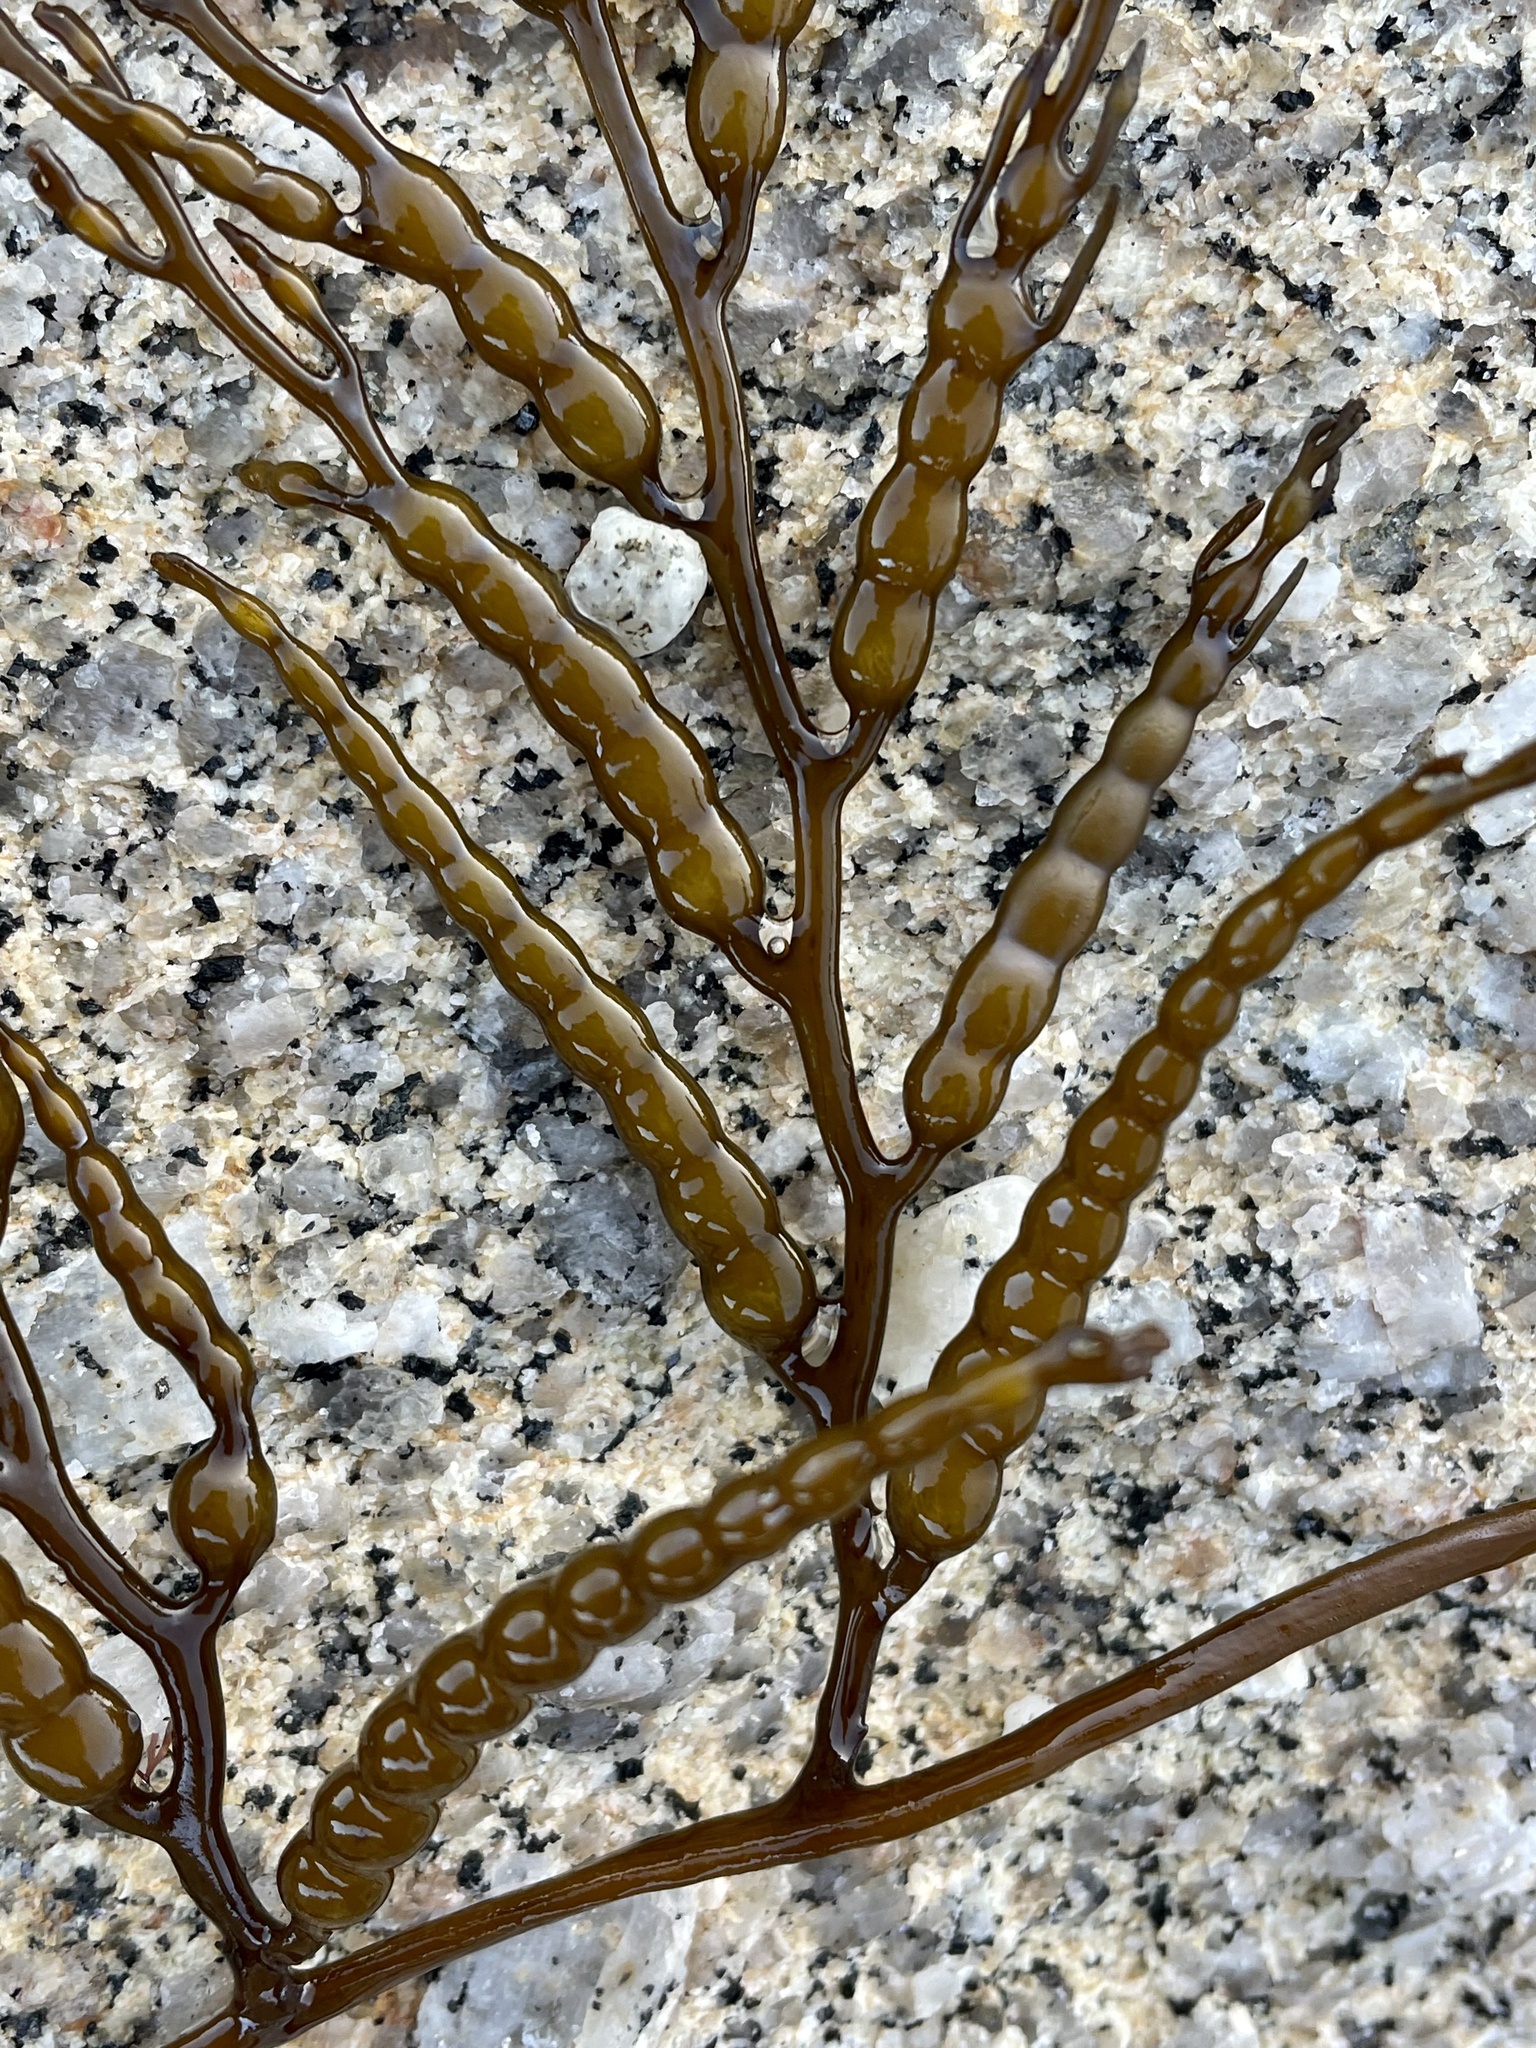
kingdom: Chromista
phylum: Ochrophyta
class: Phaeophyceae
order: Fucales
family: Sargassaceae
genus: Stephanocystis
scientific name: Stephanocystis
